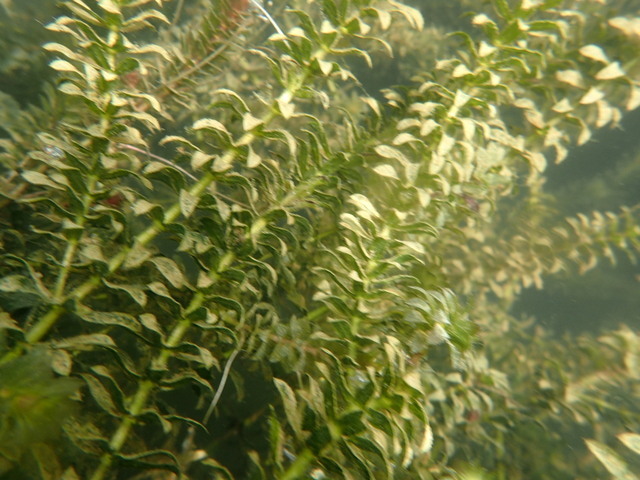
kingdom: Plantae
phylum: Tracheophyta
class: Liliopsida
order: Alismatales
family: Hydrocharitaceae
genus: Hydrilla
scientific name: Hydrilla verticillata
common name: Florida-elodea
